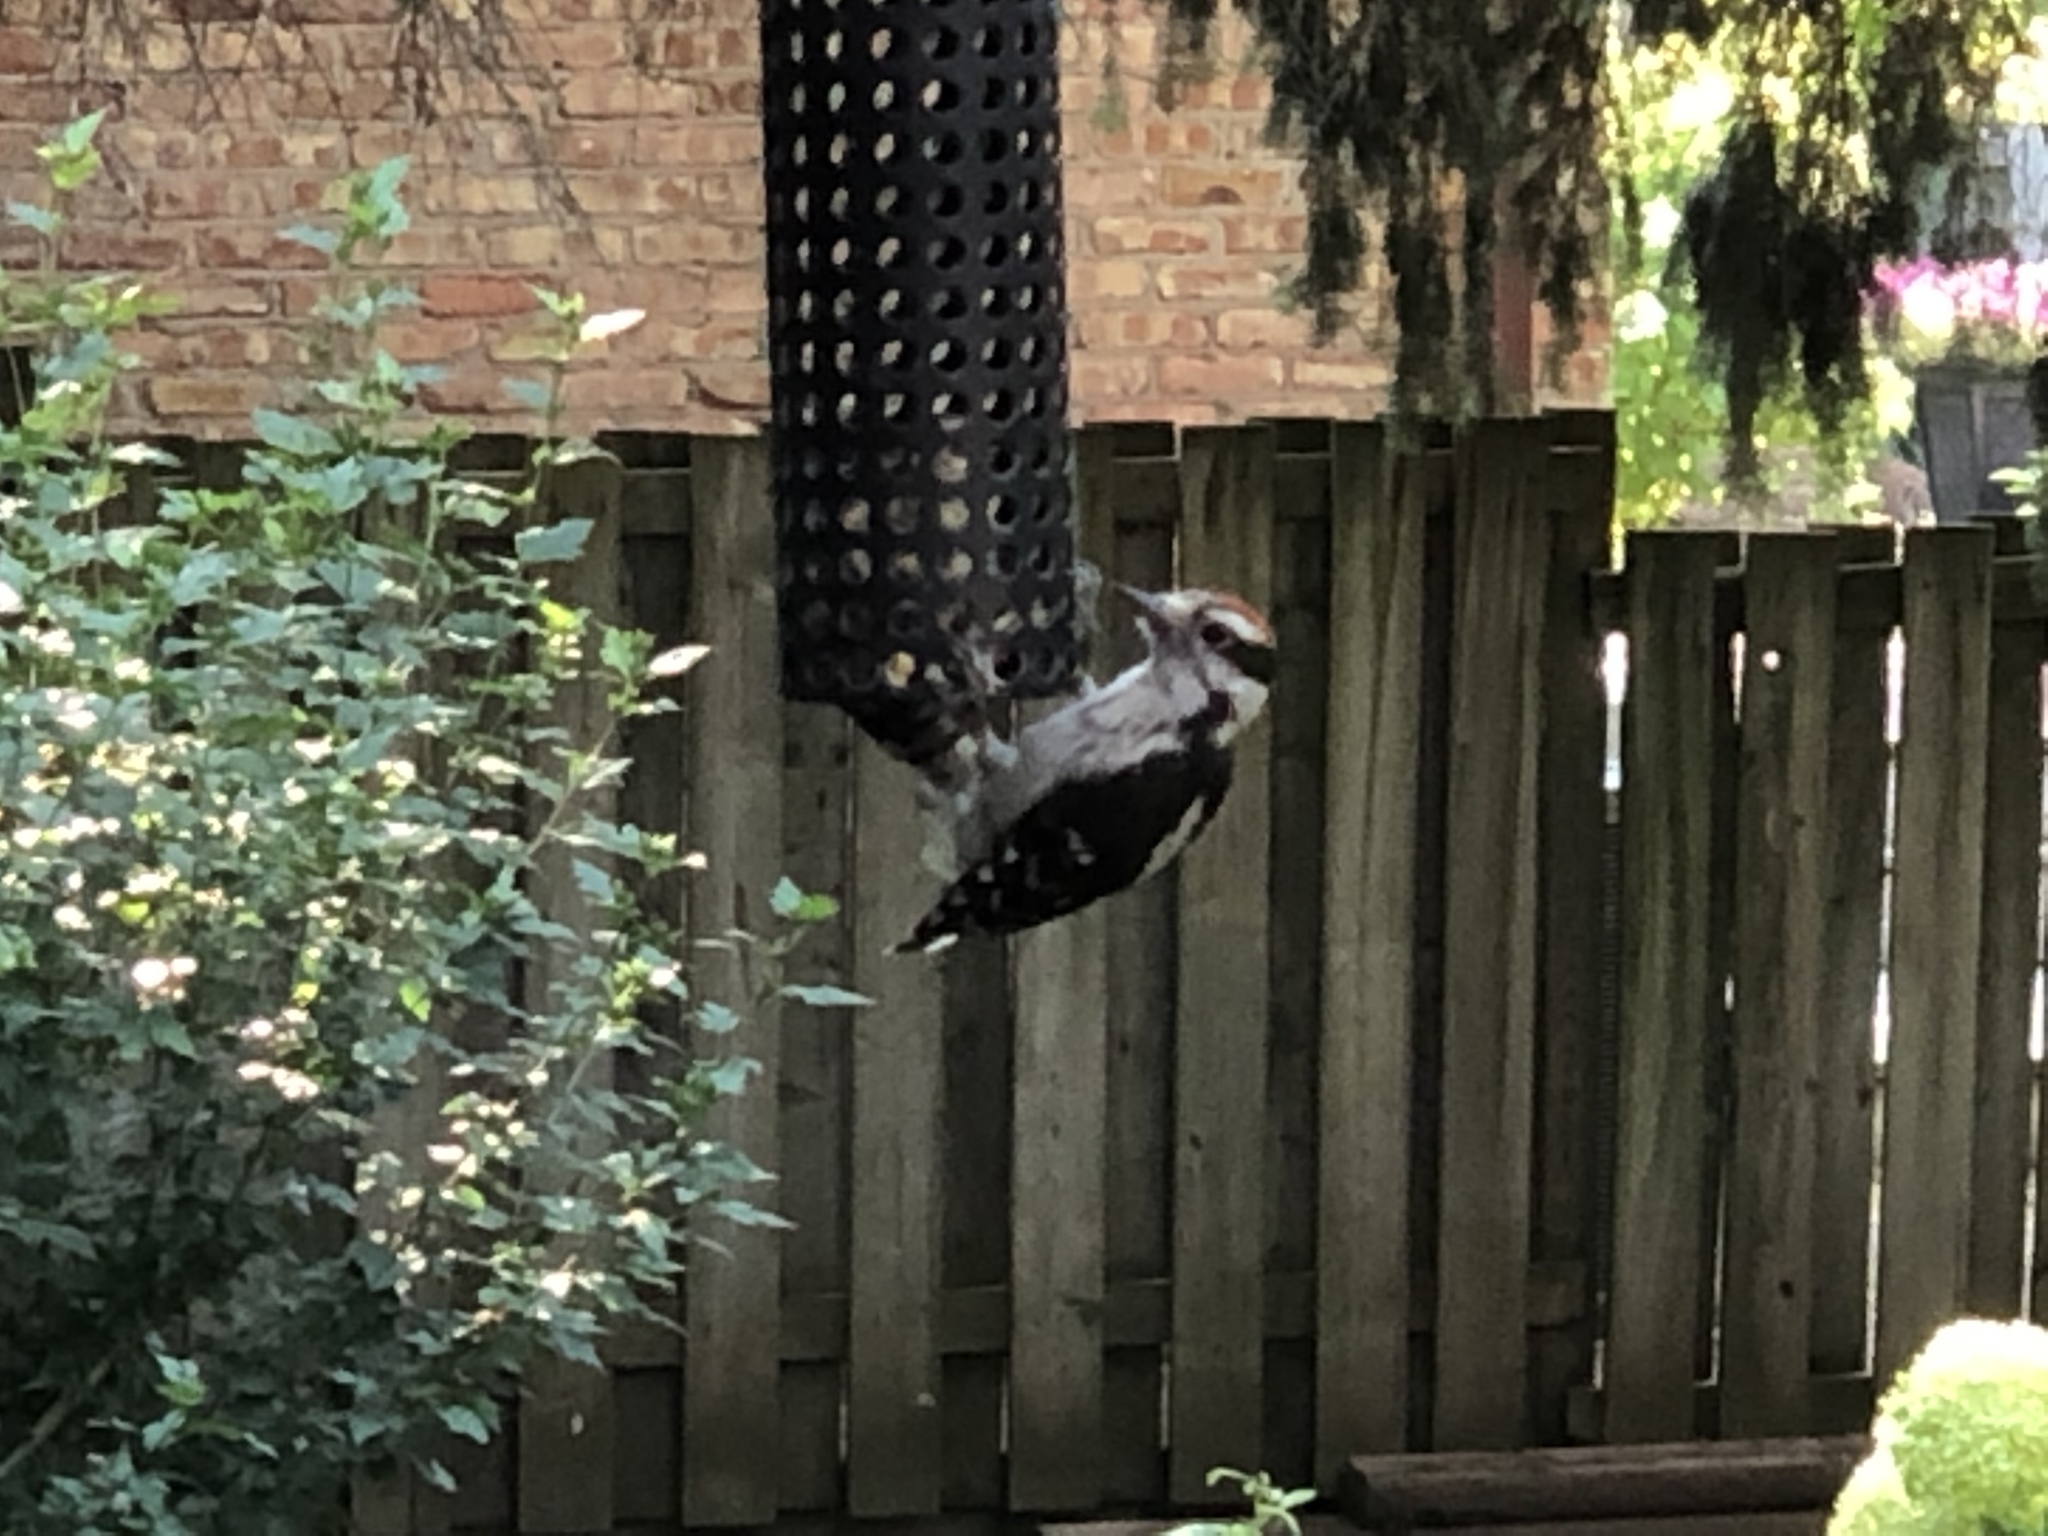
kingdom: Animalia
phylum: Chordata
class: Aves
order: Piciformes
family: Picidae
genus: Dryobates
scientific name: Dryobates pubescens
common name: Downy woodpecker
